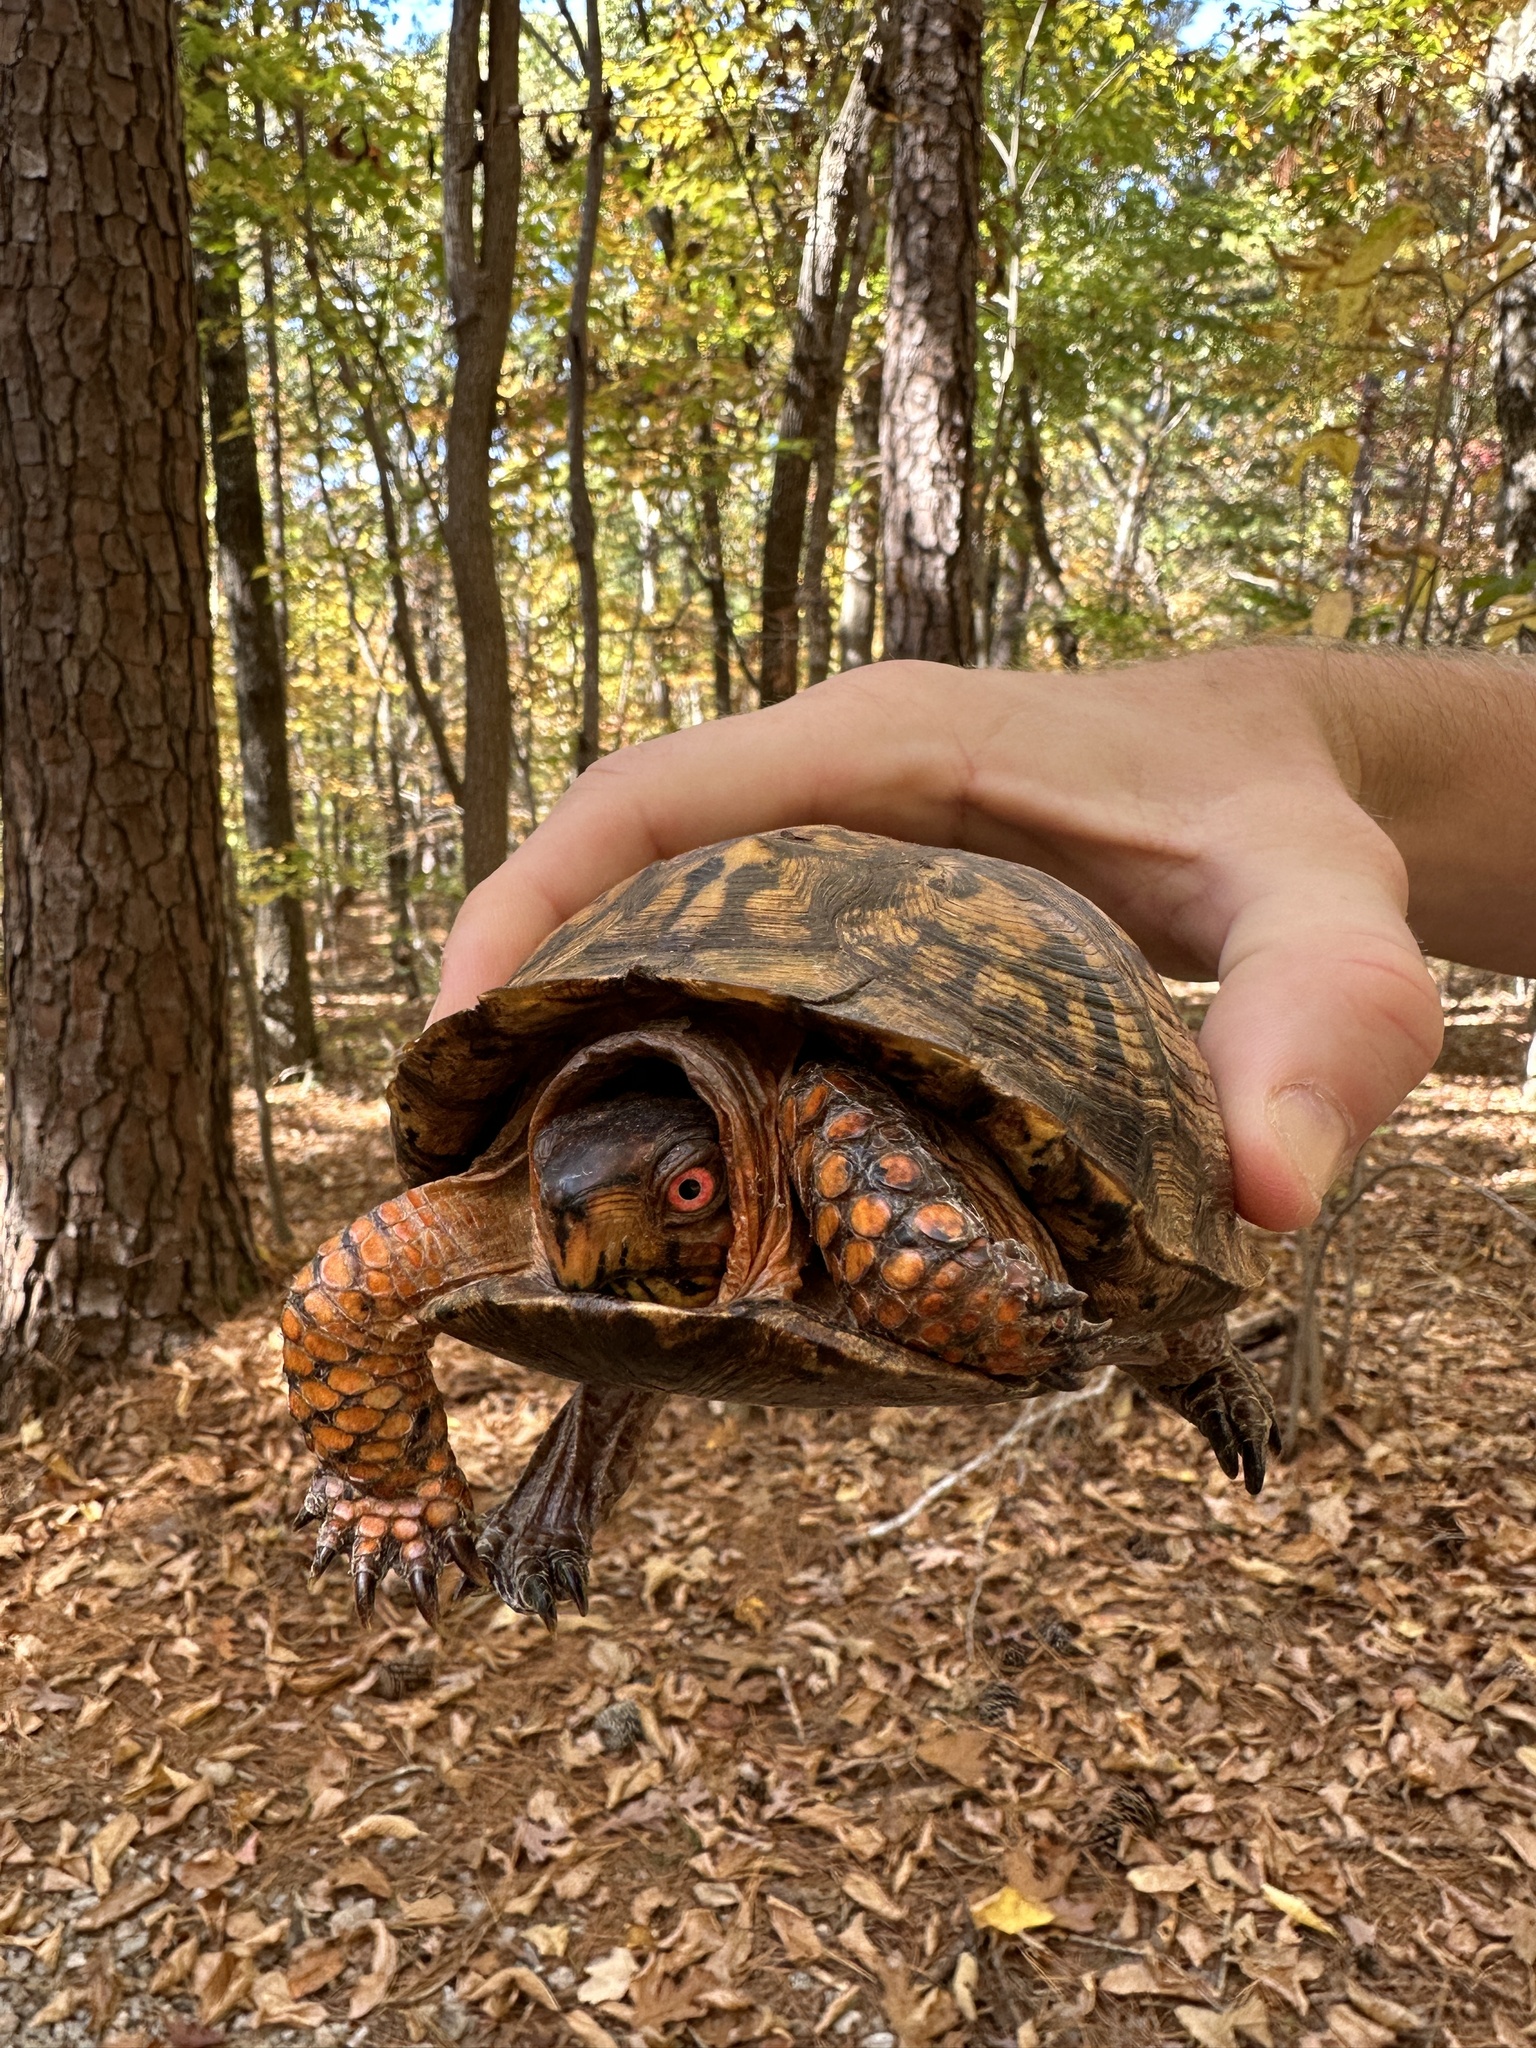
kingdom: Animalia
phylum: Chordata
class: Testudines
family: Emydidae
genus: Terrapene
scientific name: Terrapene carolina
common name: Common box turtle
